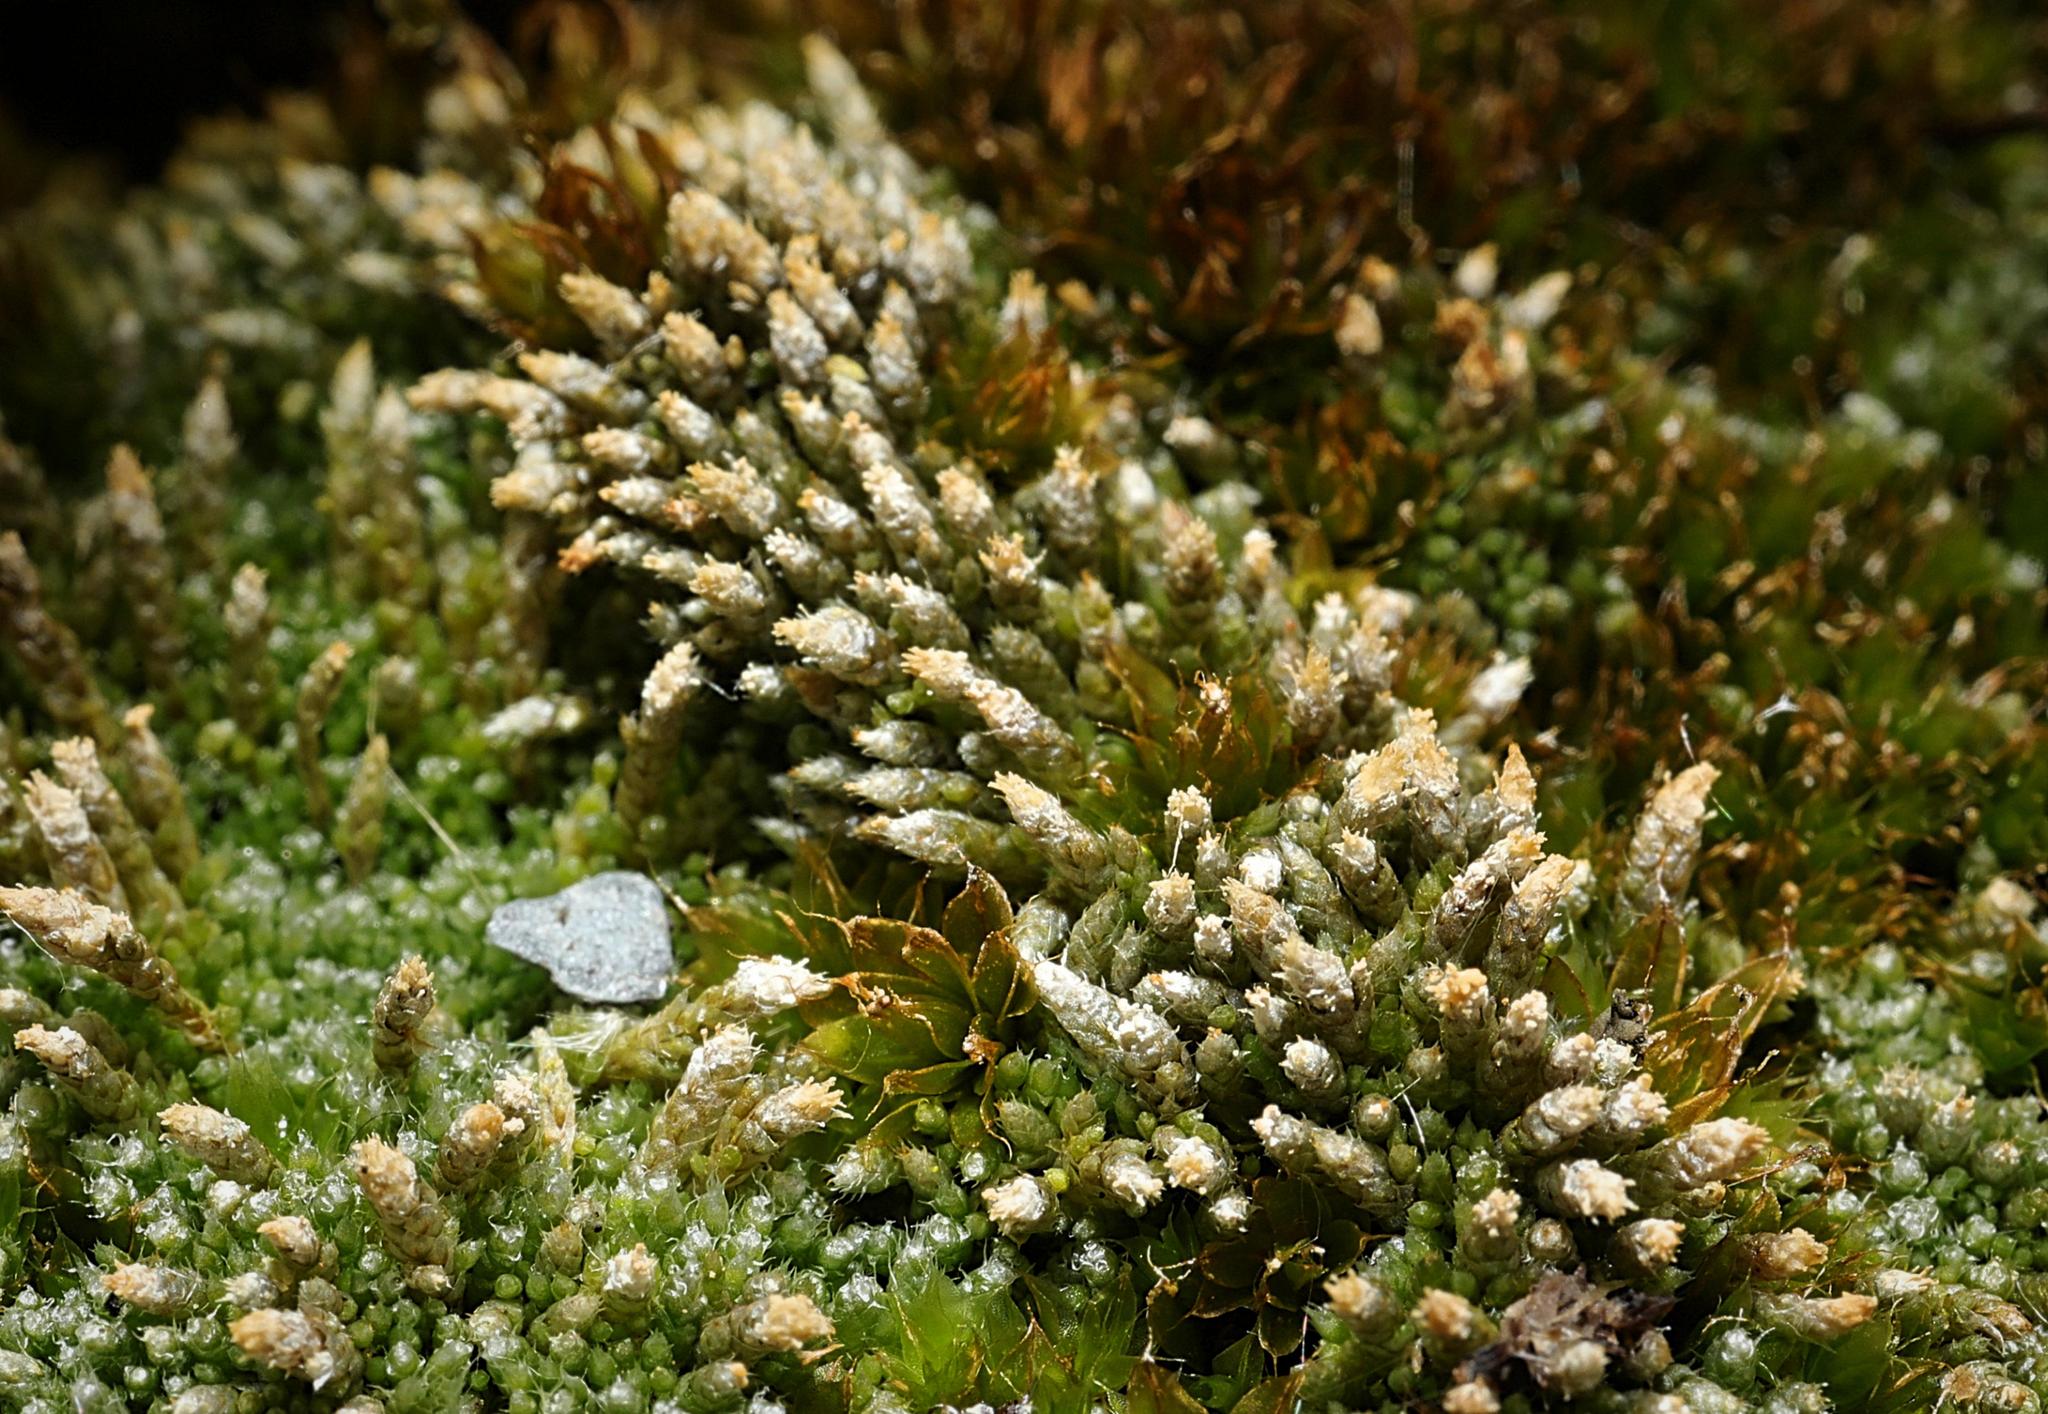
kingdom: Plantae
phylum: Bryophyta
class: Bryopsida
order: Bryales
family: Bryaceae
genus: Bryum
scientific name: Bryum argenteum
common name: Silver-moss
